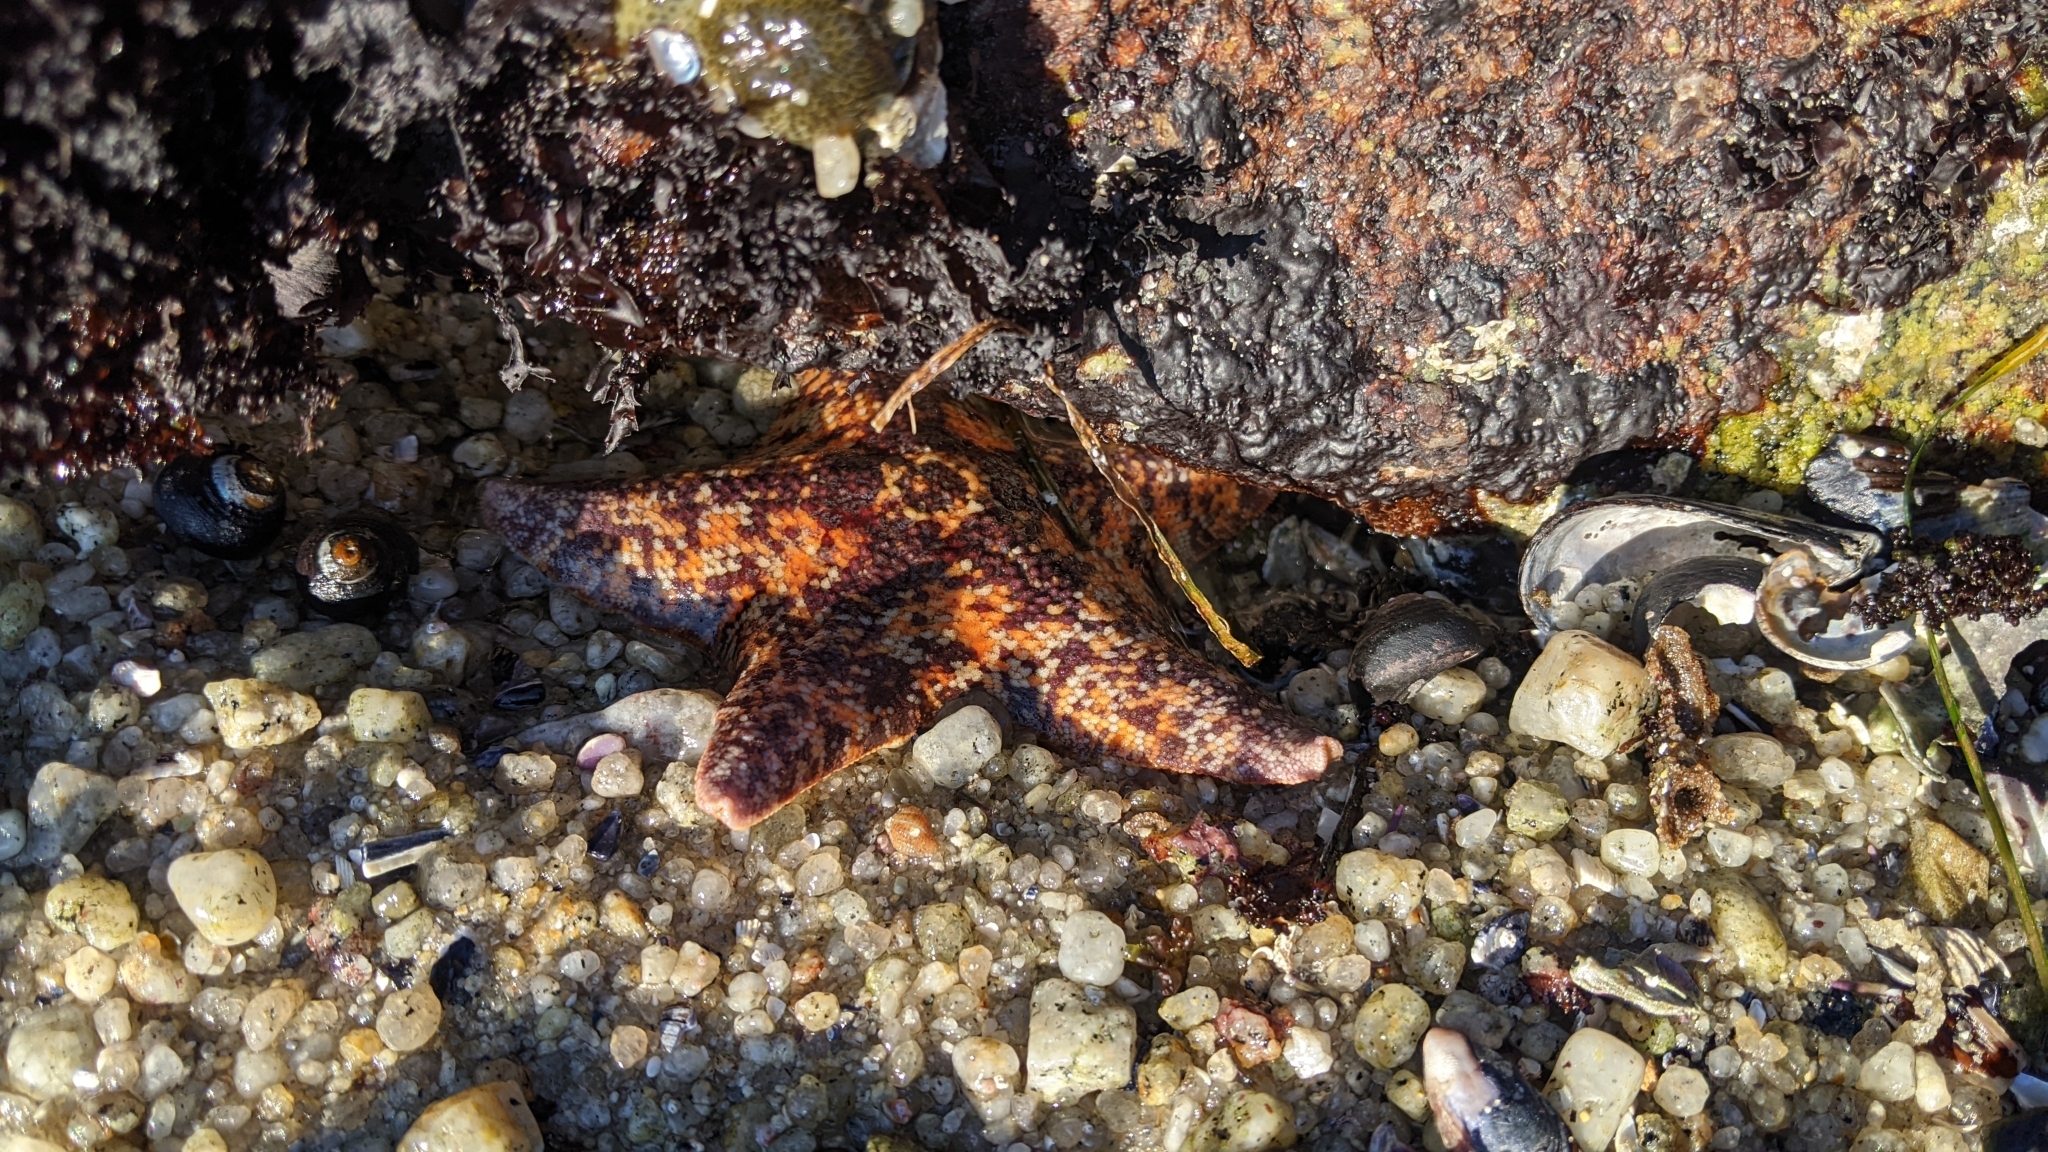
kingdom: Animalia
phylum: Echinodermata
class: Asteroidea
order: Valvatida
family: Asterinidae
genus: Patiria
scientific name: Patiria miniata
